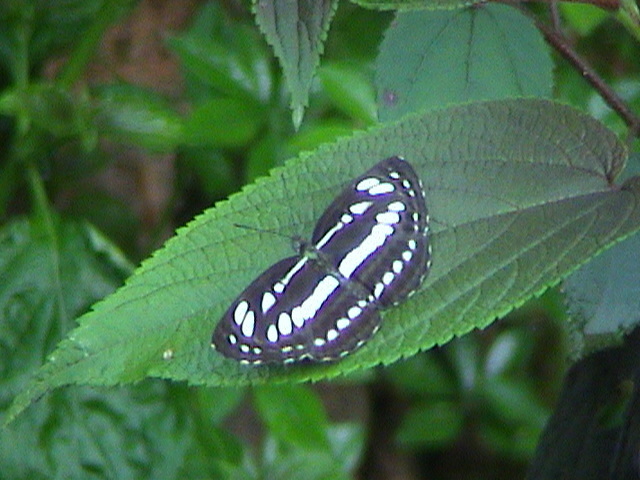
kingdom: Animalia
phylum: Arthropoda
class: Insecta
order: Lepidoptera
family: Nymphalidae
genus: Neptis
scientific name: Neptis hylas
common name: Common sailer
